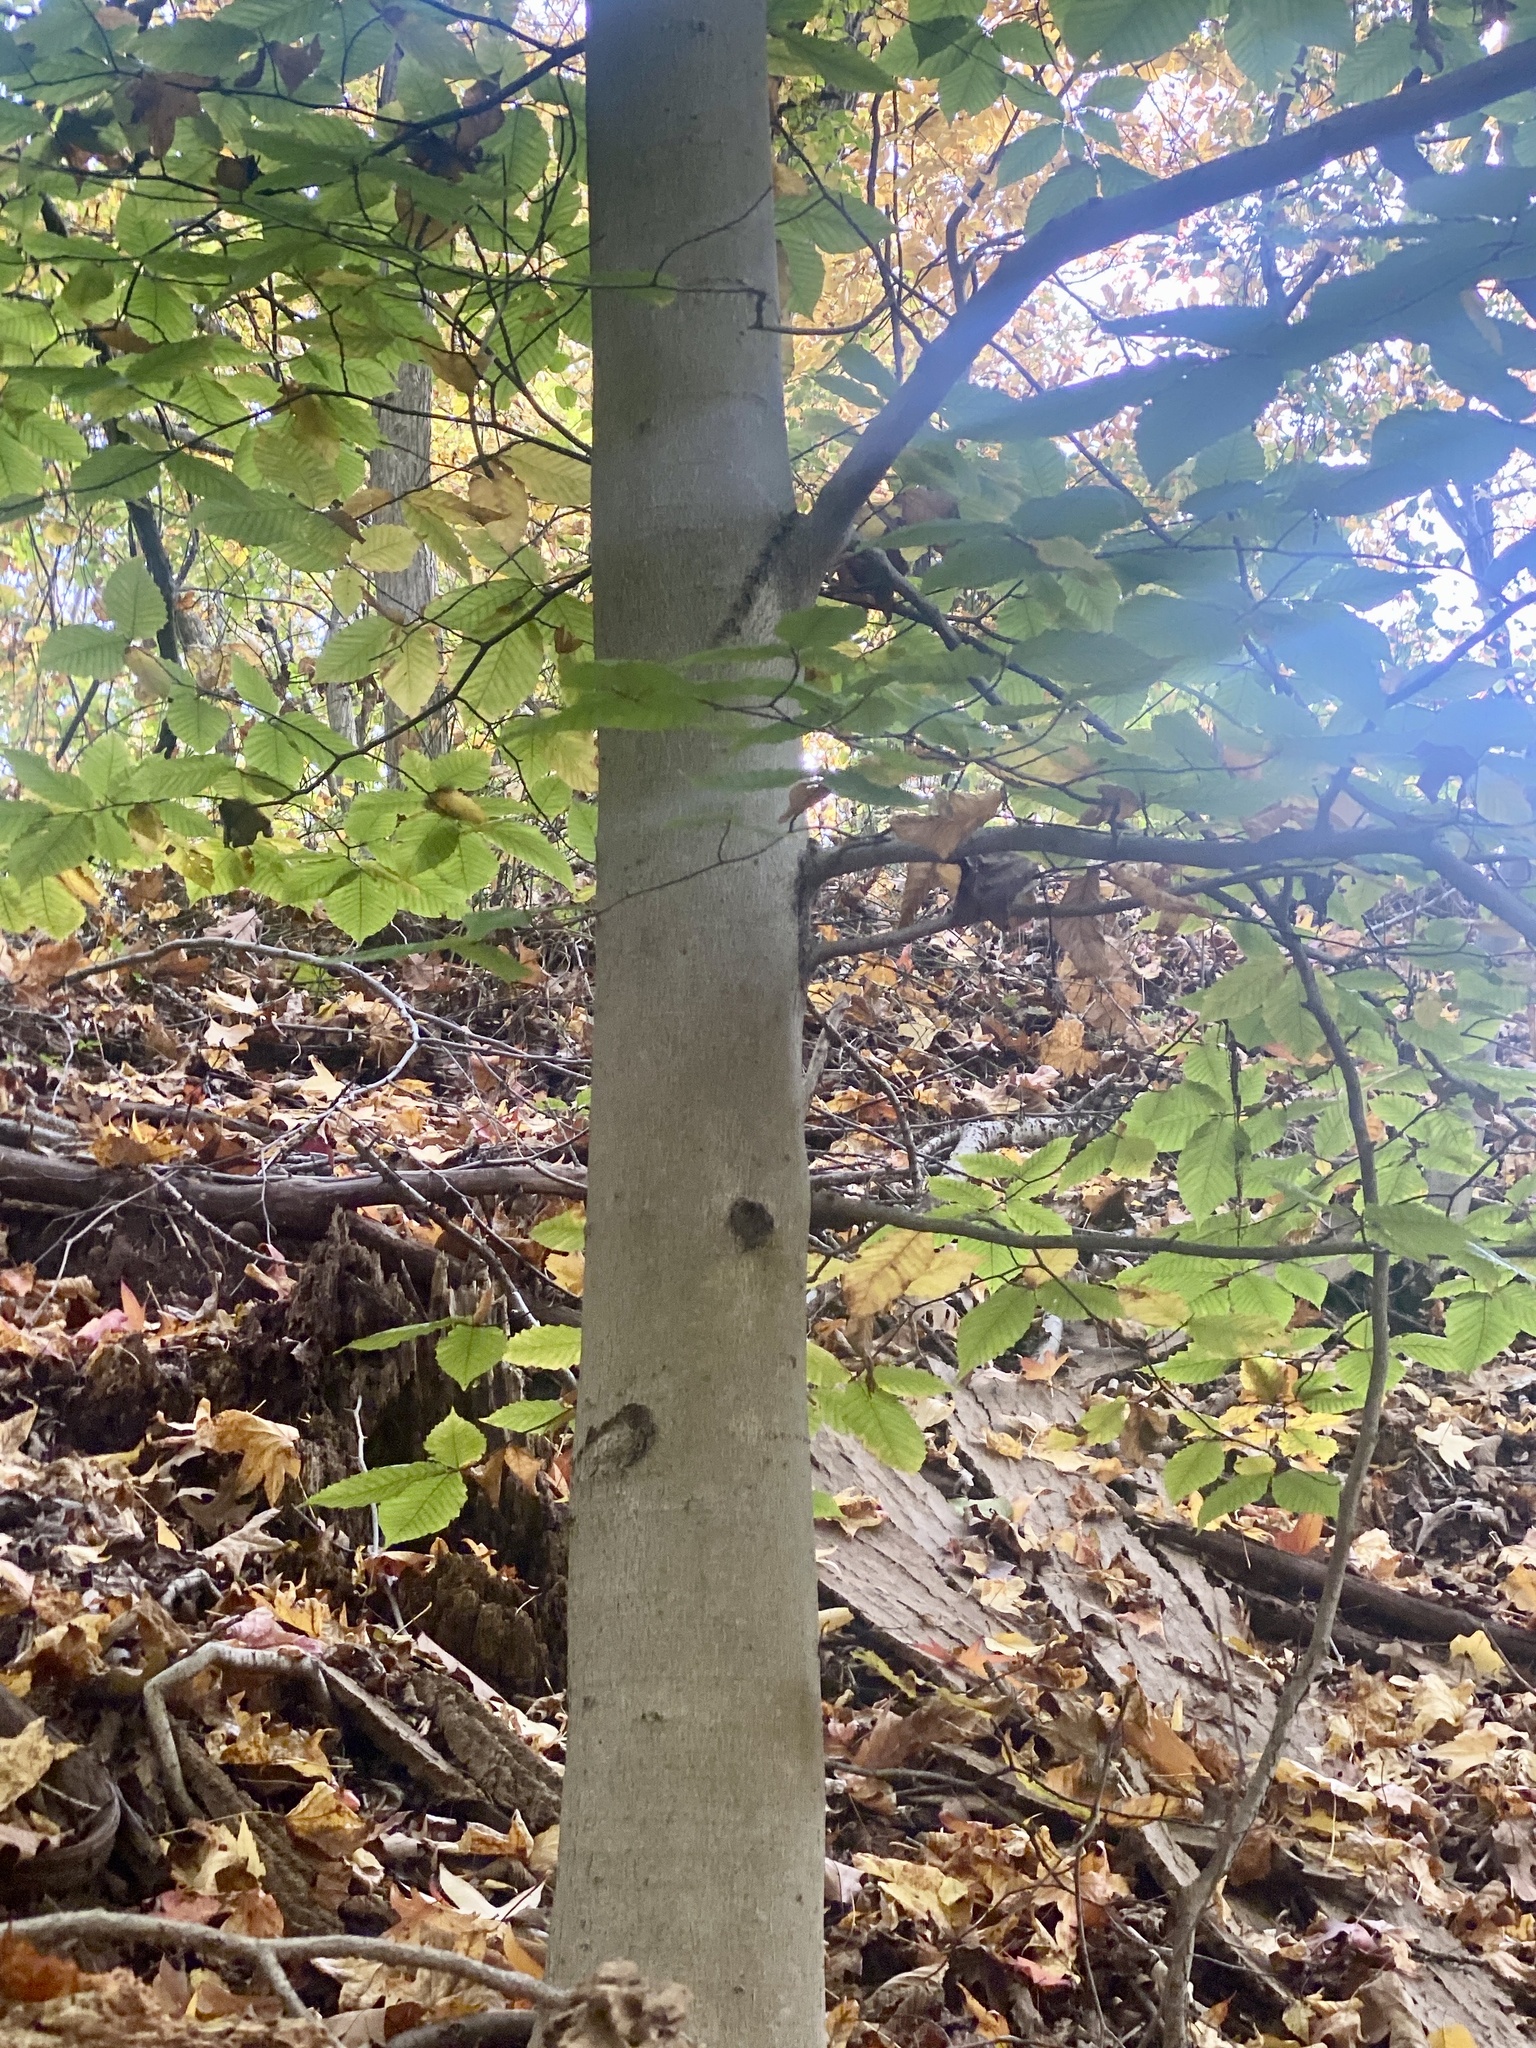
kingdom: Plantae
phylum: Tracheophyta
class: Magnoliopsida
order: Fagales
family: Fagaceae
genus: Fagus
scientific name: Fagus grandifolia
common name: American beech
